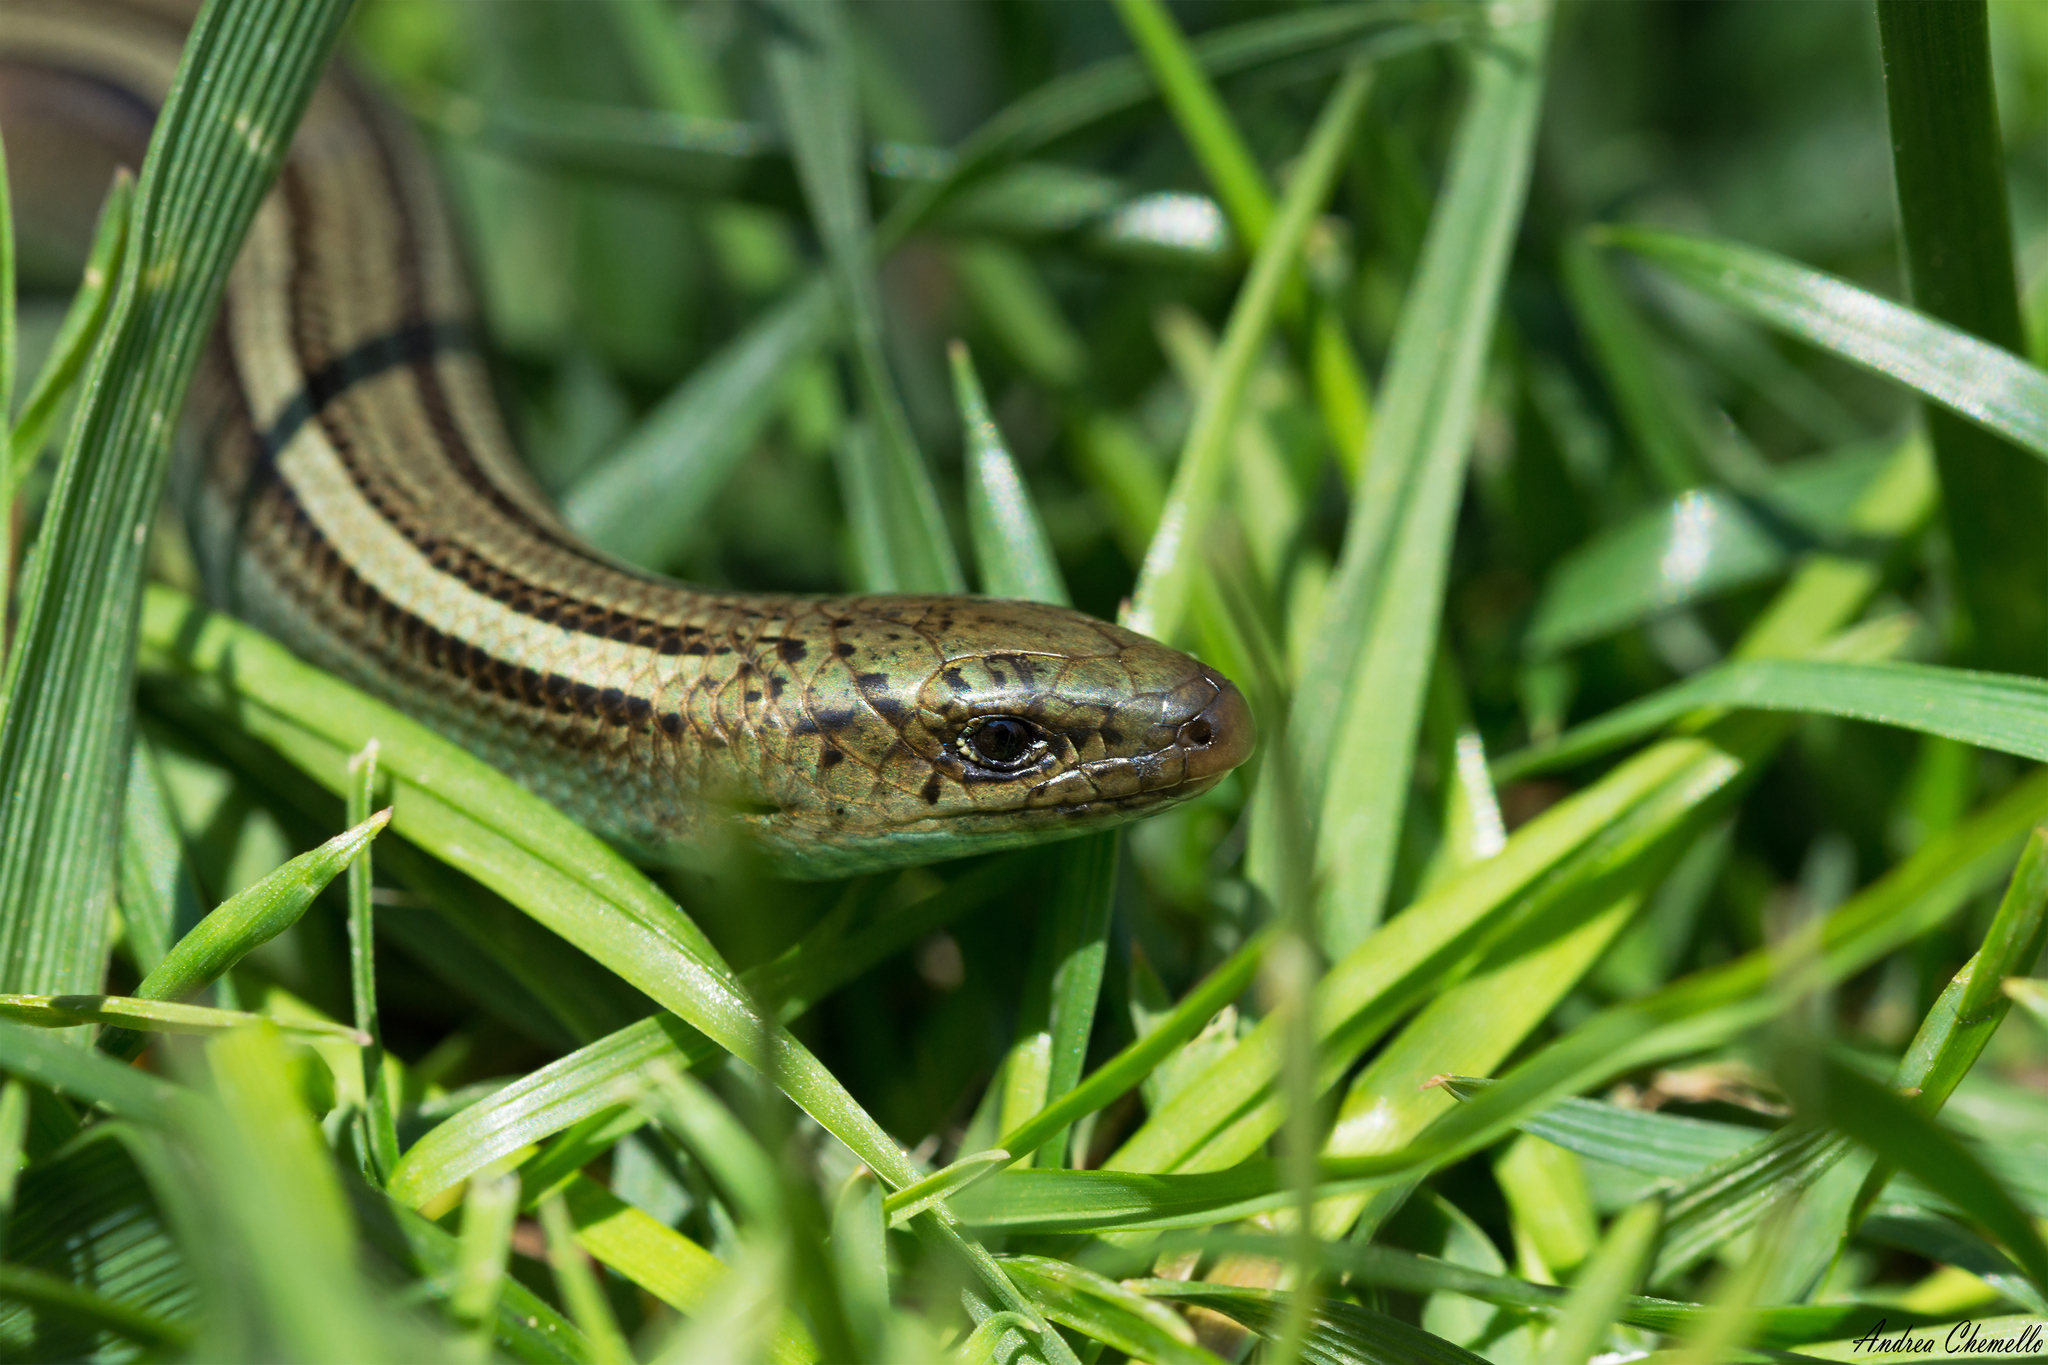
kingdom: Animalia
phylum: Chordata
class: Squamata
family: Scincidae
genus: Chalcides
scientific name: Chalcides chalcides
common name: Italian three-toed skink
